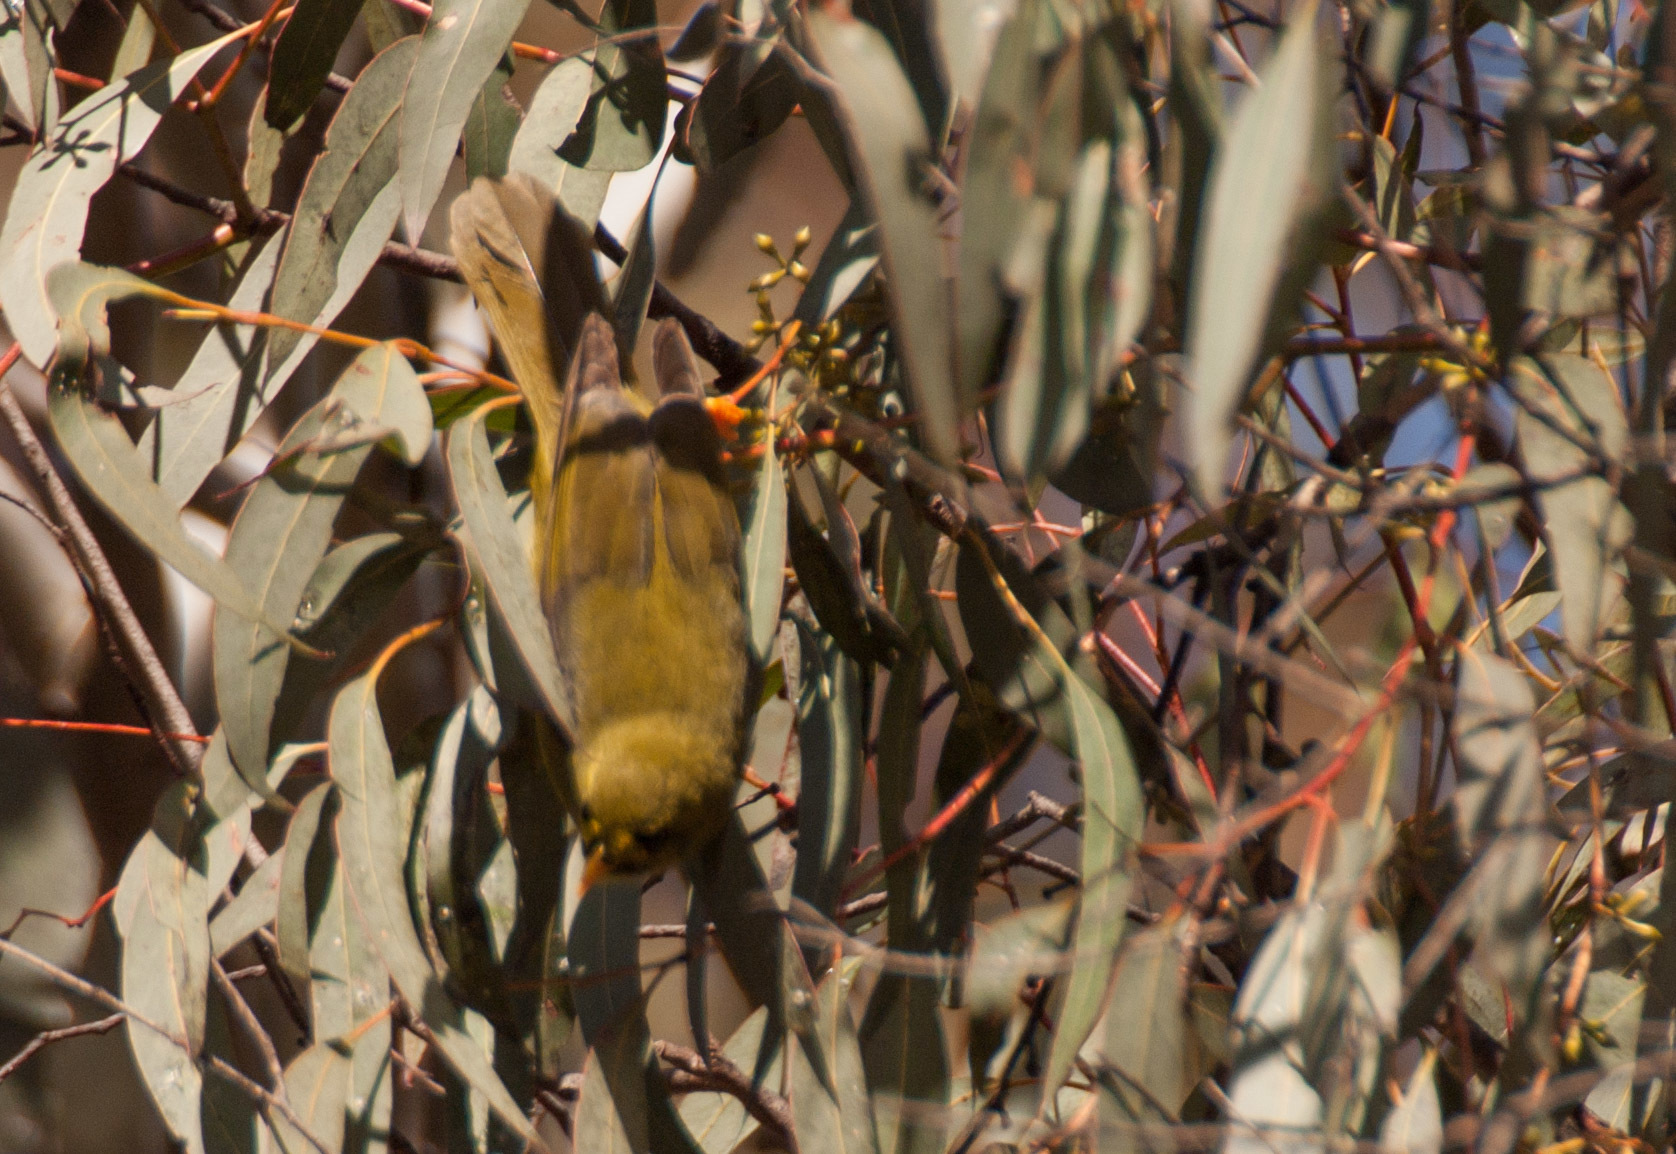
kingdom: Animalia
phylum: Chordata
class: Aves
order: Passeriformes
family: Meliphagidae
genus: Manorina
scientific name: Manorina melanophrys
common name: Bell miner
